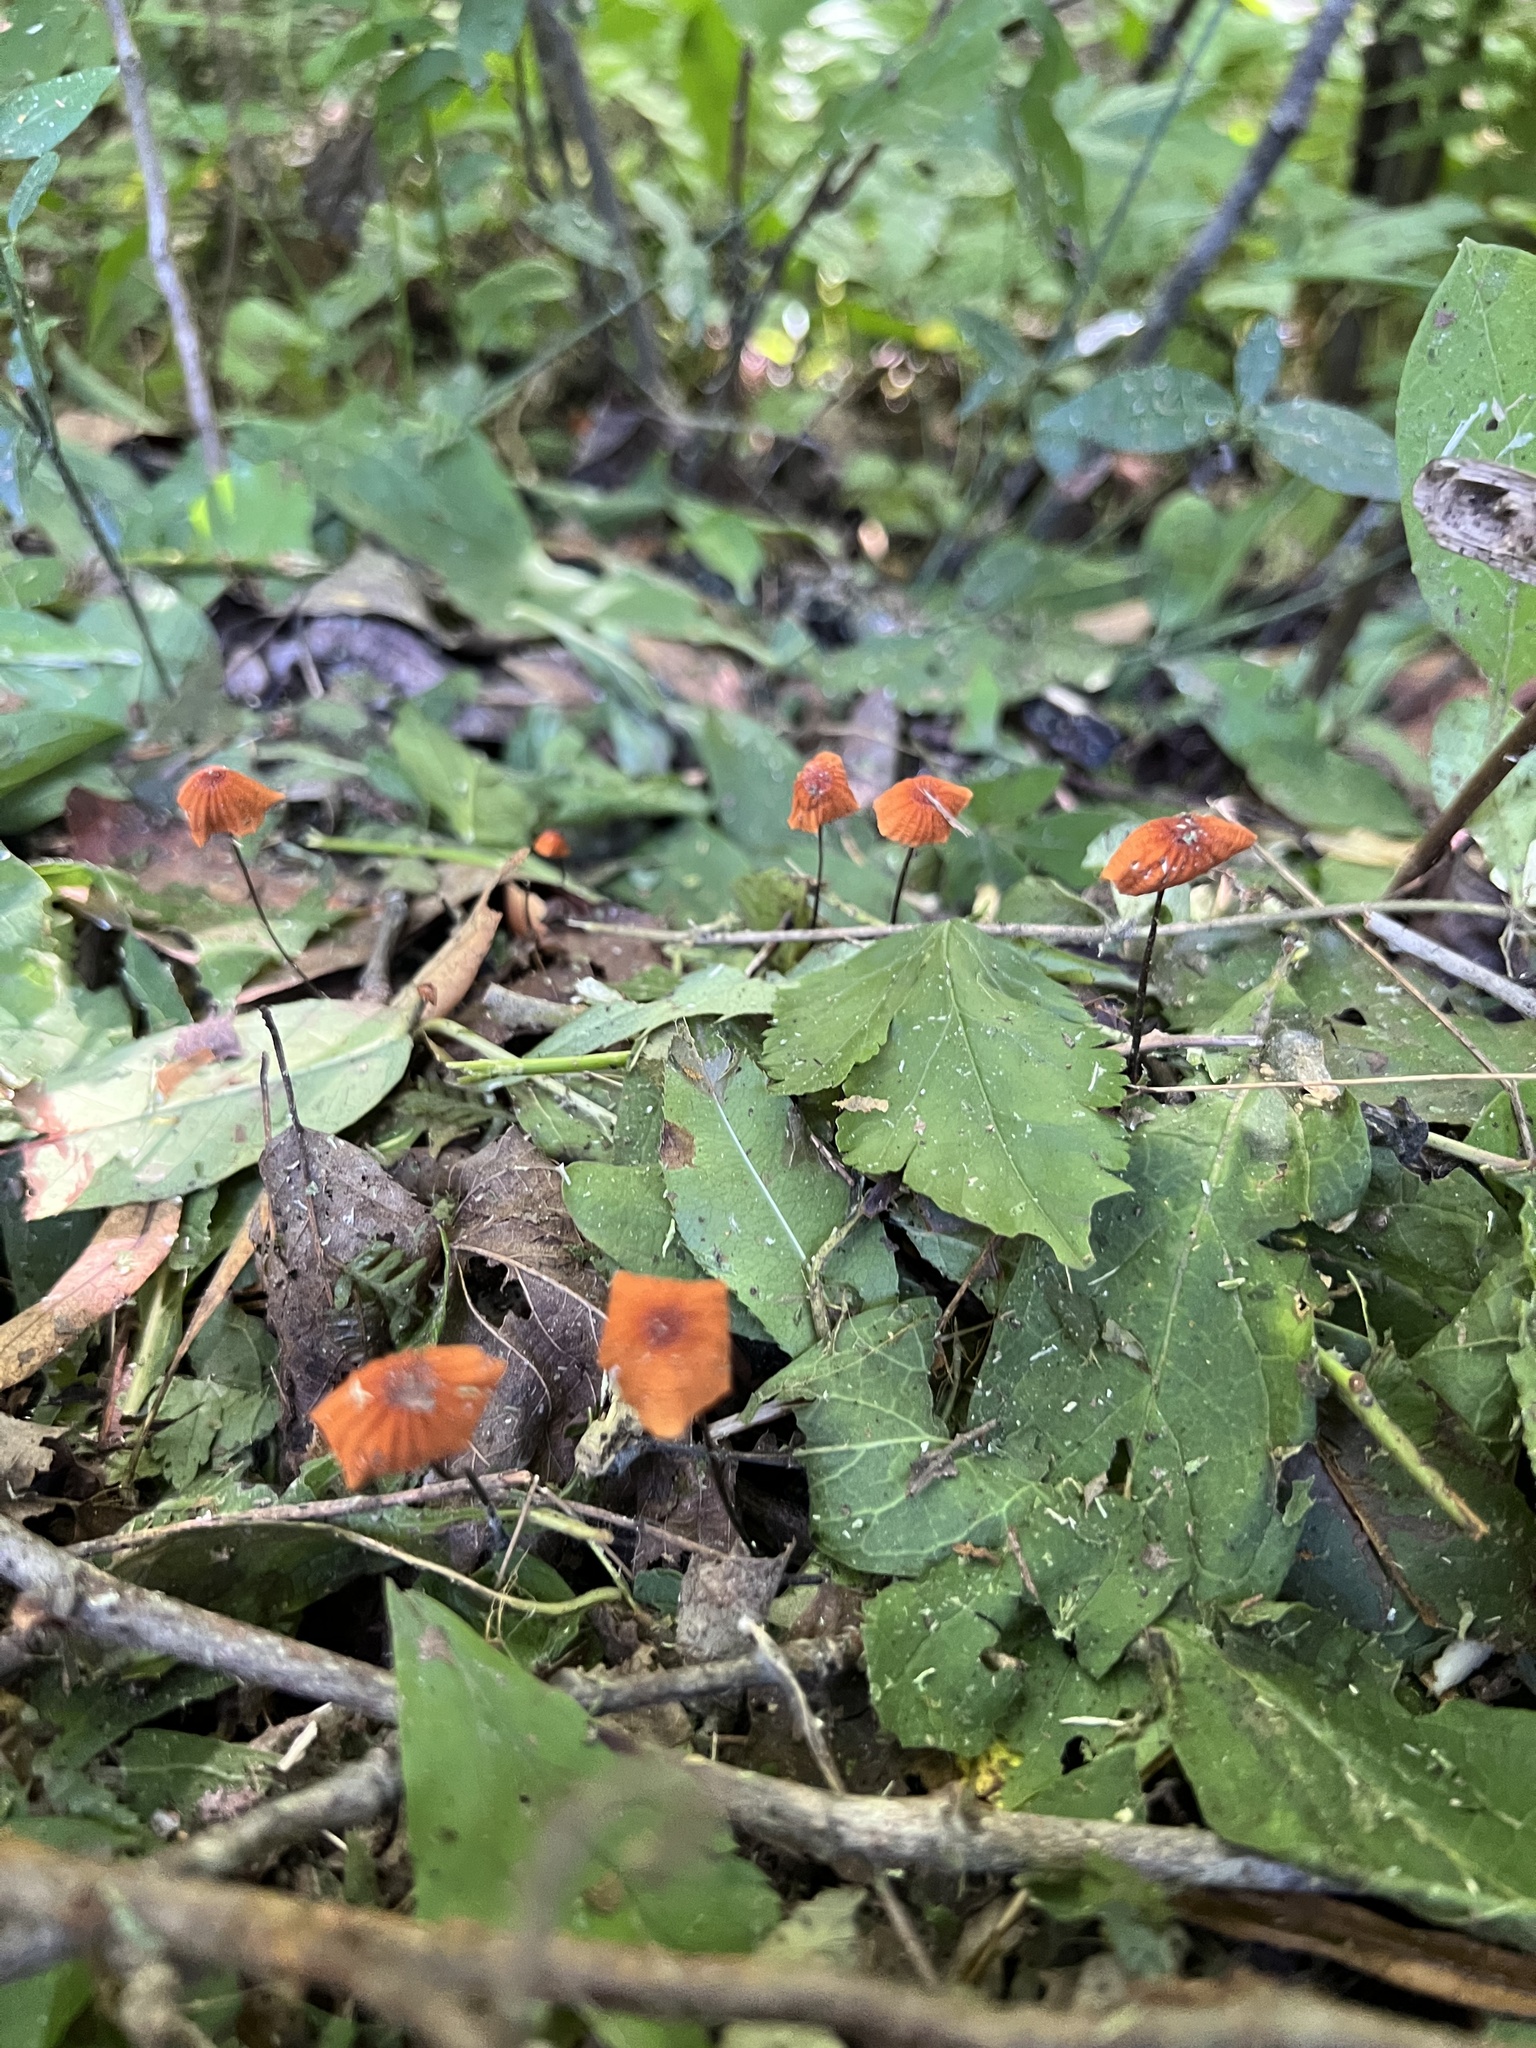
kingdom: Fungi
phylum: Basidiomycota
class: Agaricomycetes
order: Agaricales
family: Marasmiaceae
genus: Marasmius
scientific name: Marasmius siccus
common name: Orange pinwheel
